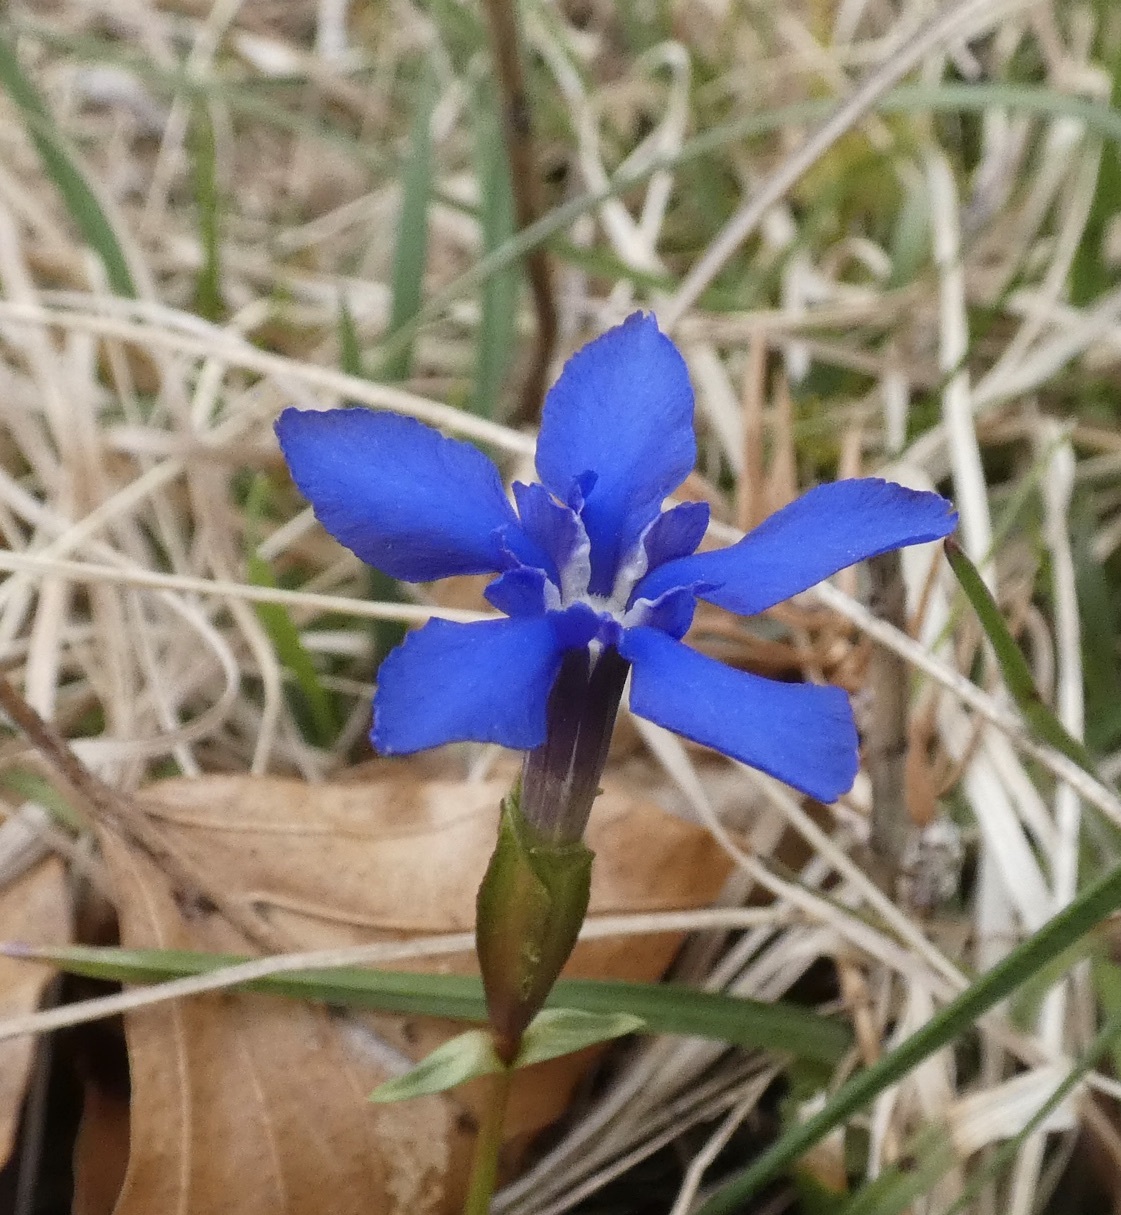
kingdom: Plantae
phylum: Tracheophyta
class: Magnoliopsida
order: Gentianales
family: Gentianaceae
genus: Gentiana
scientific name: Gentiana verna
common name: Spring gentian
